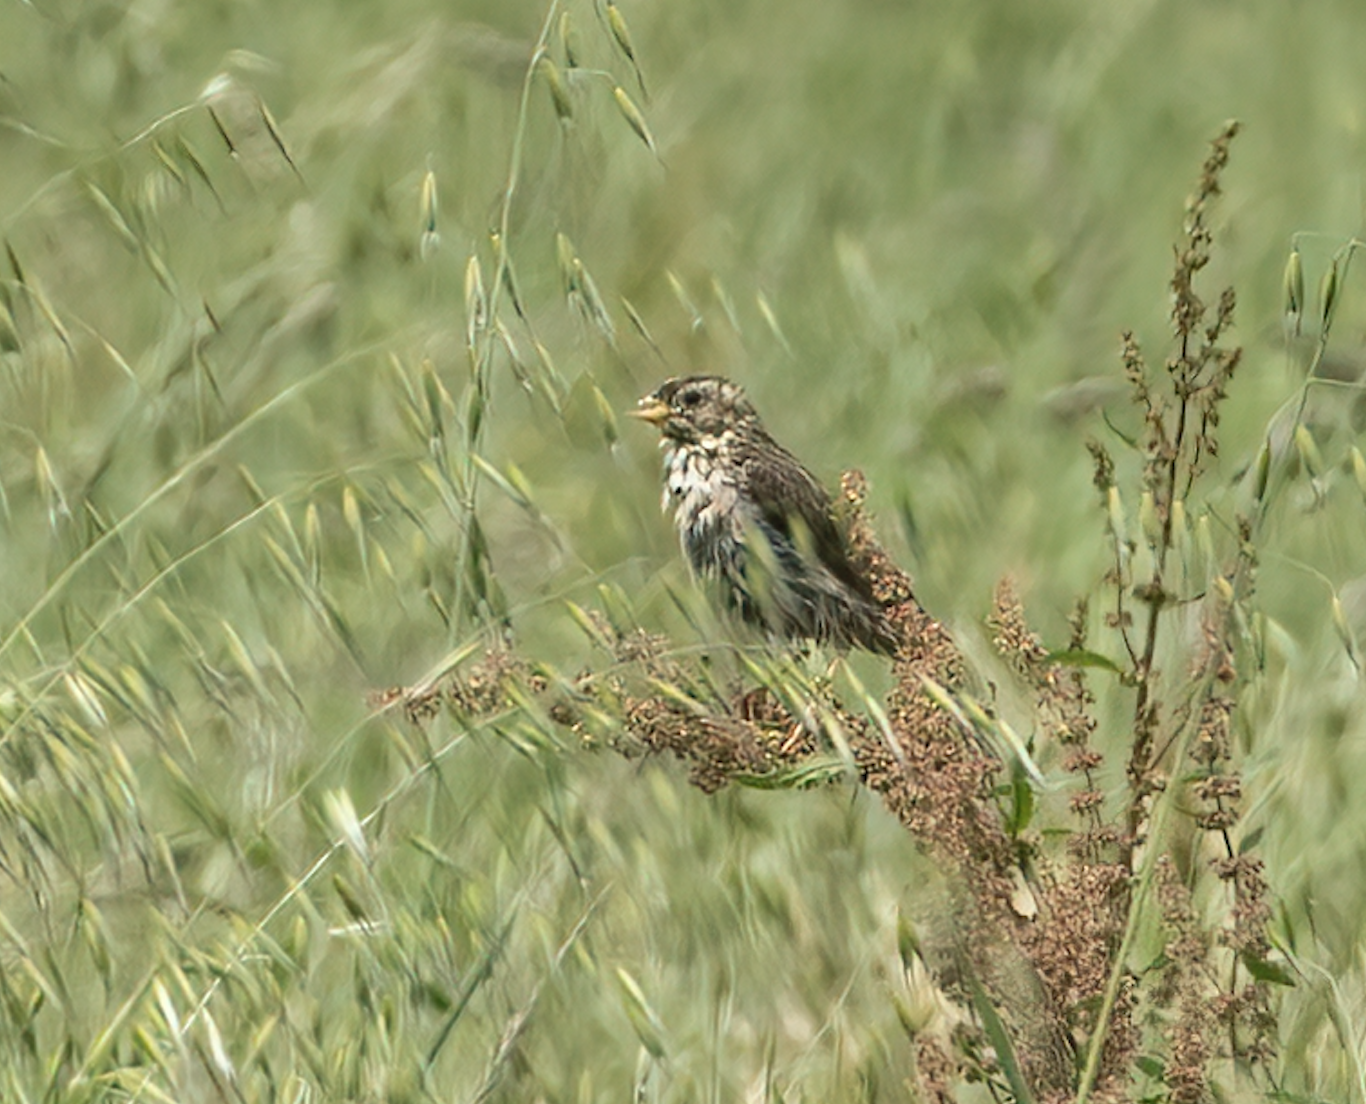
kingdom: Animalia
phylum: Chordata
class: Aves
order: Passeriformes
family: Emberizidae
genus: Emberiza
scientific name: Emberiza calandra
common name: Corn bunting
